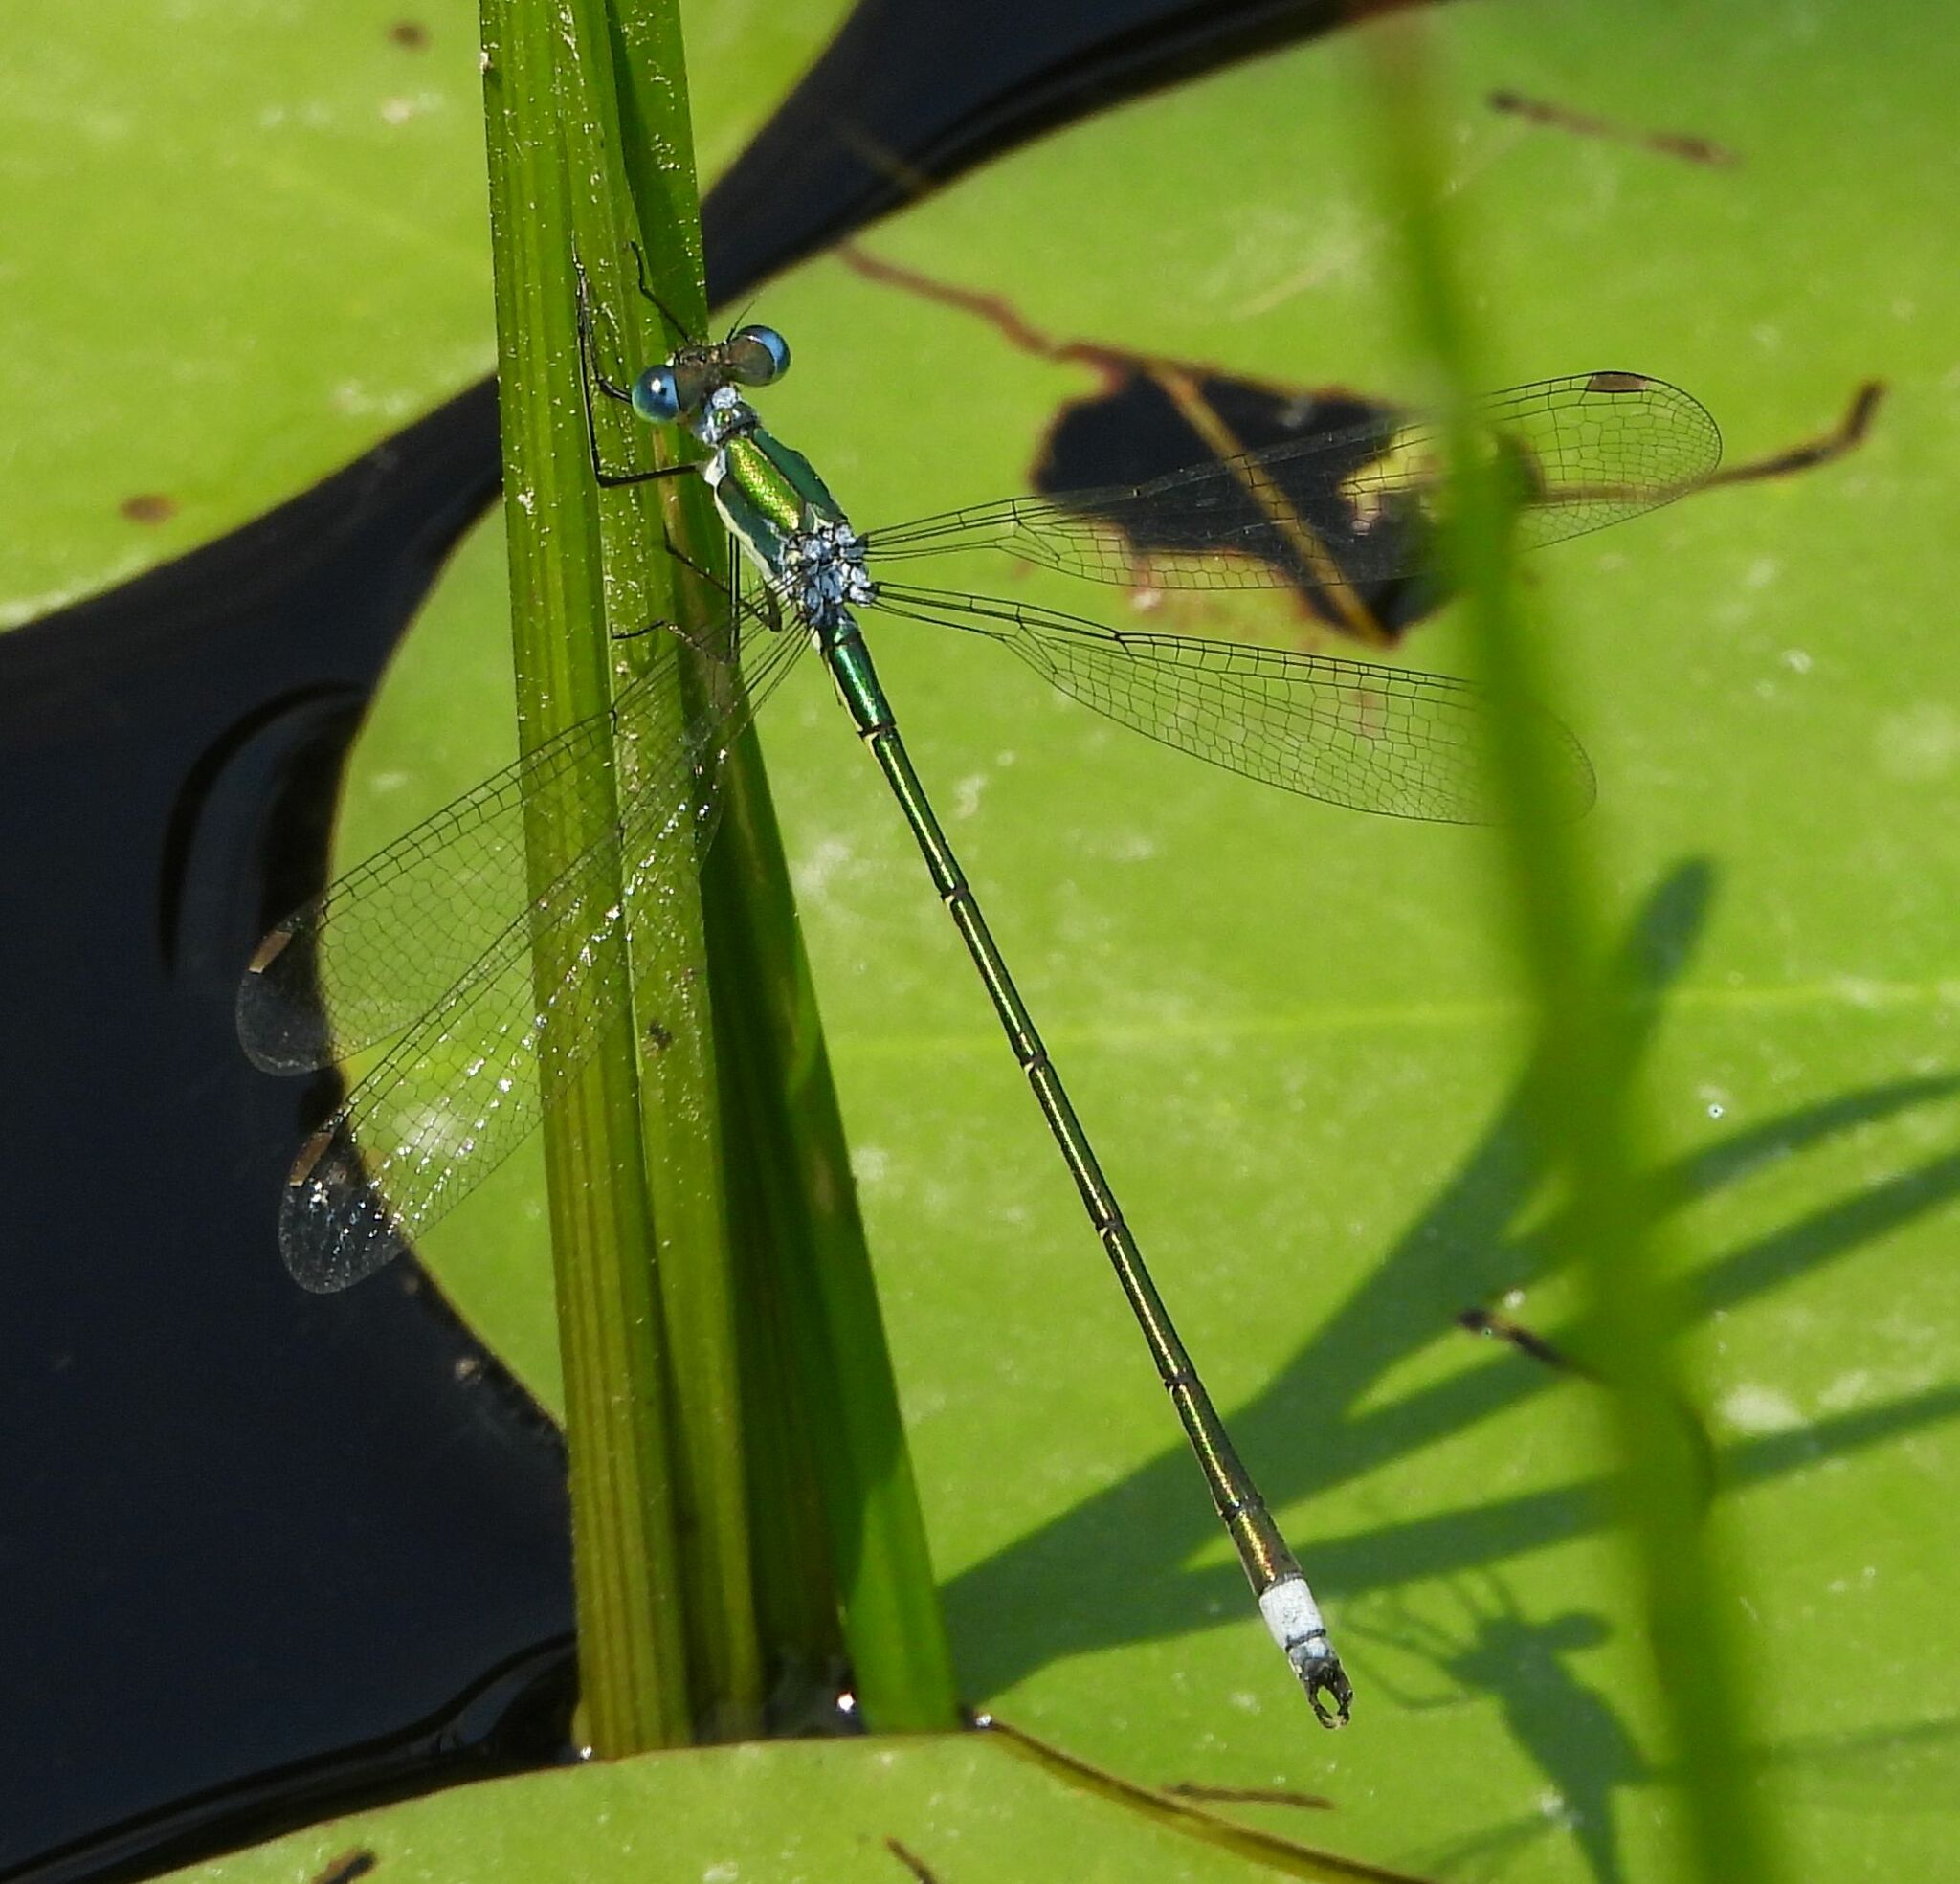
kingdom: Animalia
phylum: Arthropoda
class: Insecta
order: Odonata
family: Lestidae
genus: Lestes
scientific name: Lestes inaequalis
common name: Elegant spreadwing
